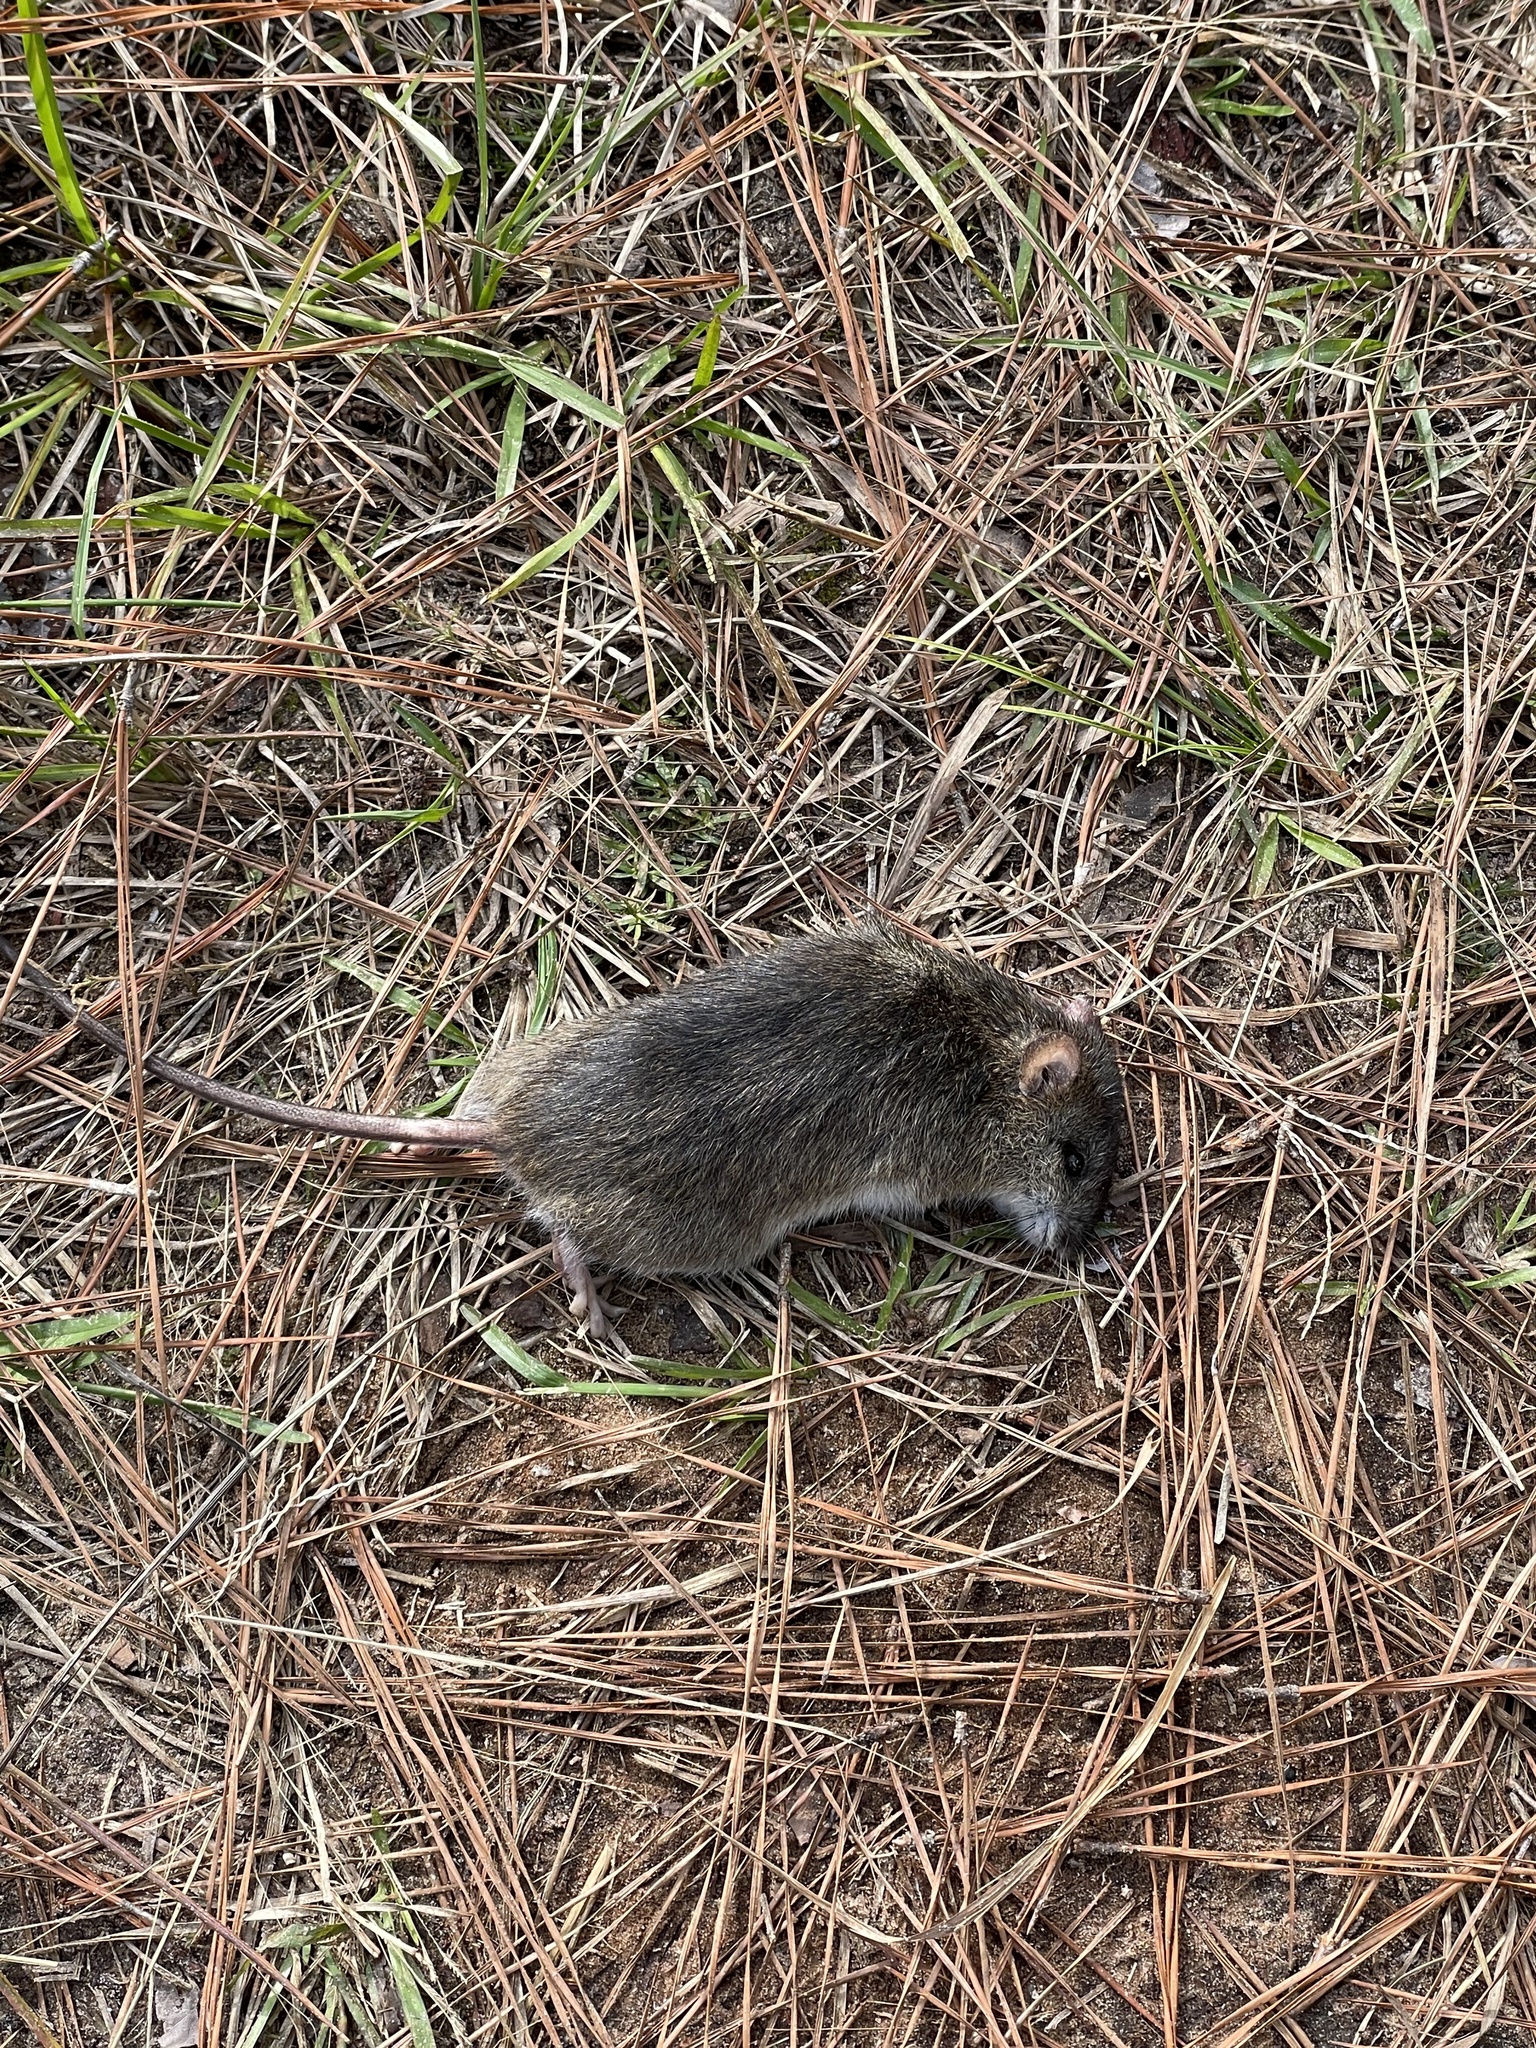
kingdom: Animalia
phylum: Chordata
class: Mammalia
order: Rodentia
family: Cricetidae
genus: Oryzomys
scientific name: Oryzomys palustris
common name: Marsh rice rat
